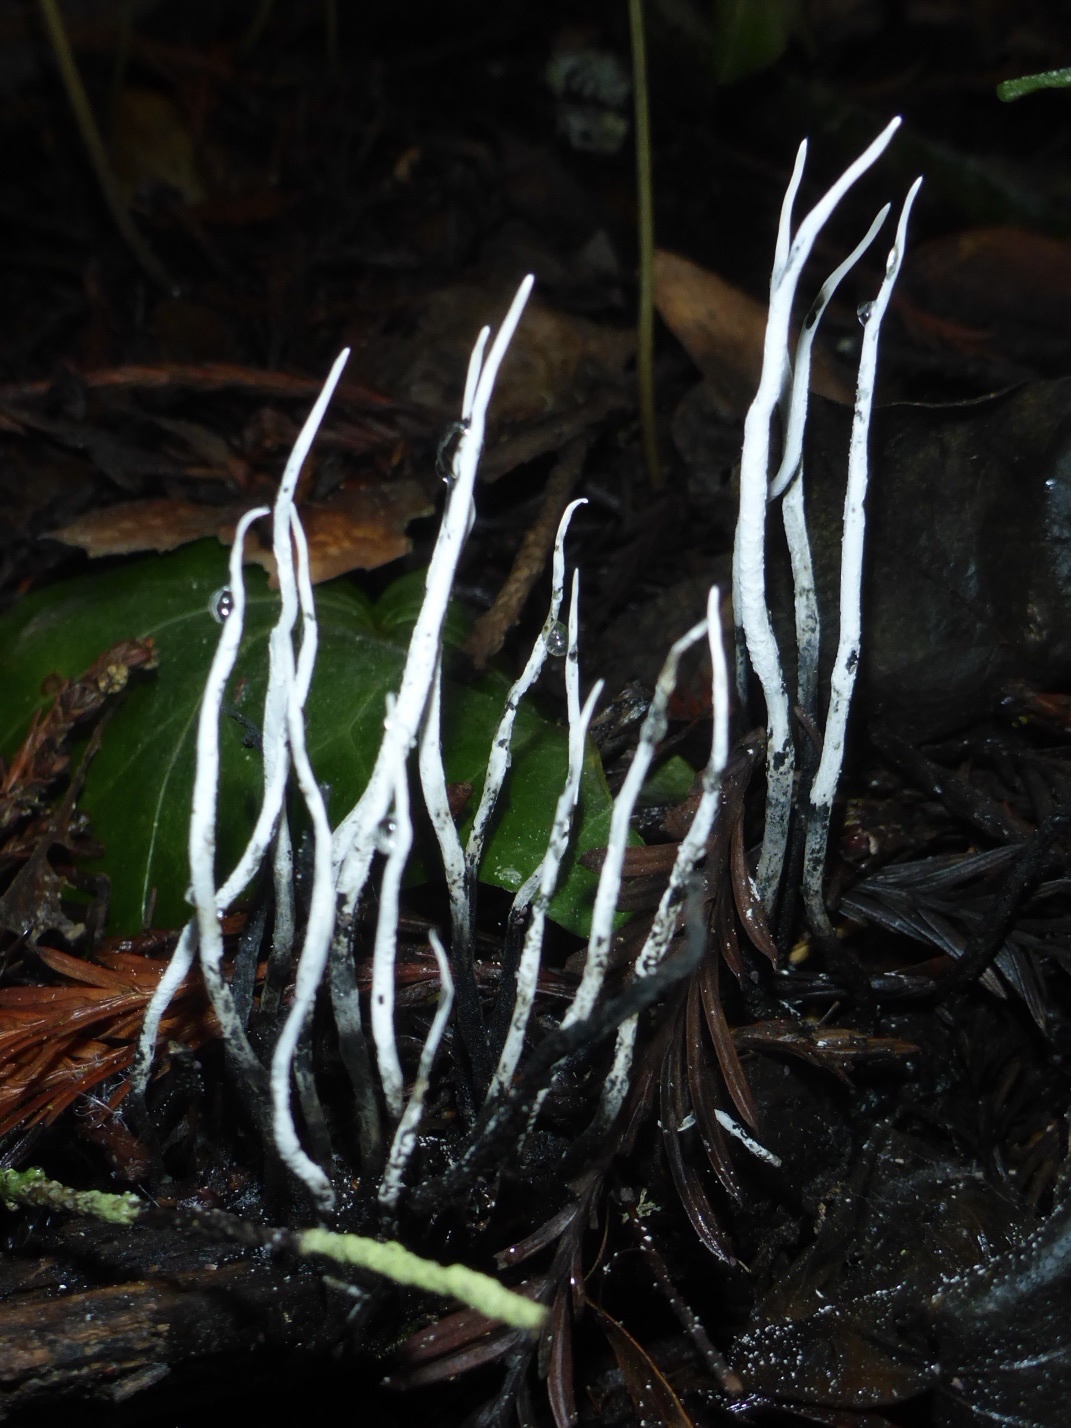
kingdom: Fungi
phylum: Ascomycota
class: Sordariomycetes
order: Xylariales
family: Xylariaceae
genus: Xylaria
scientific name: Xylaria hypoxylon
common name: Candle-snuff fungus
